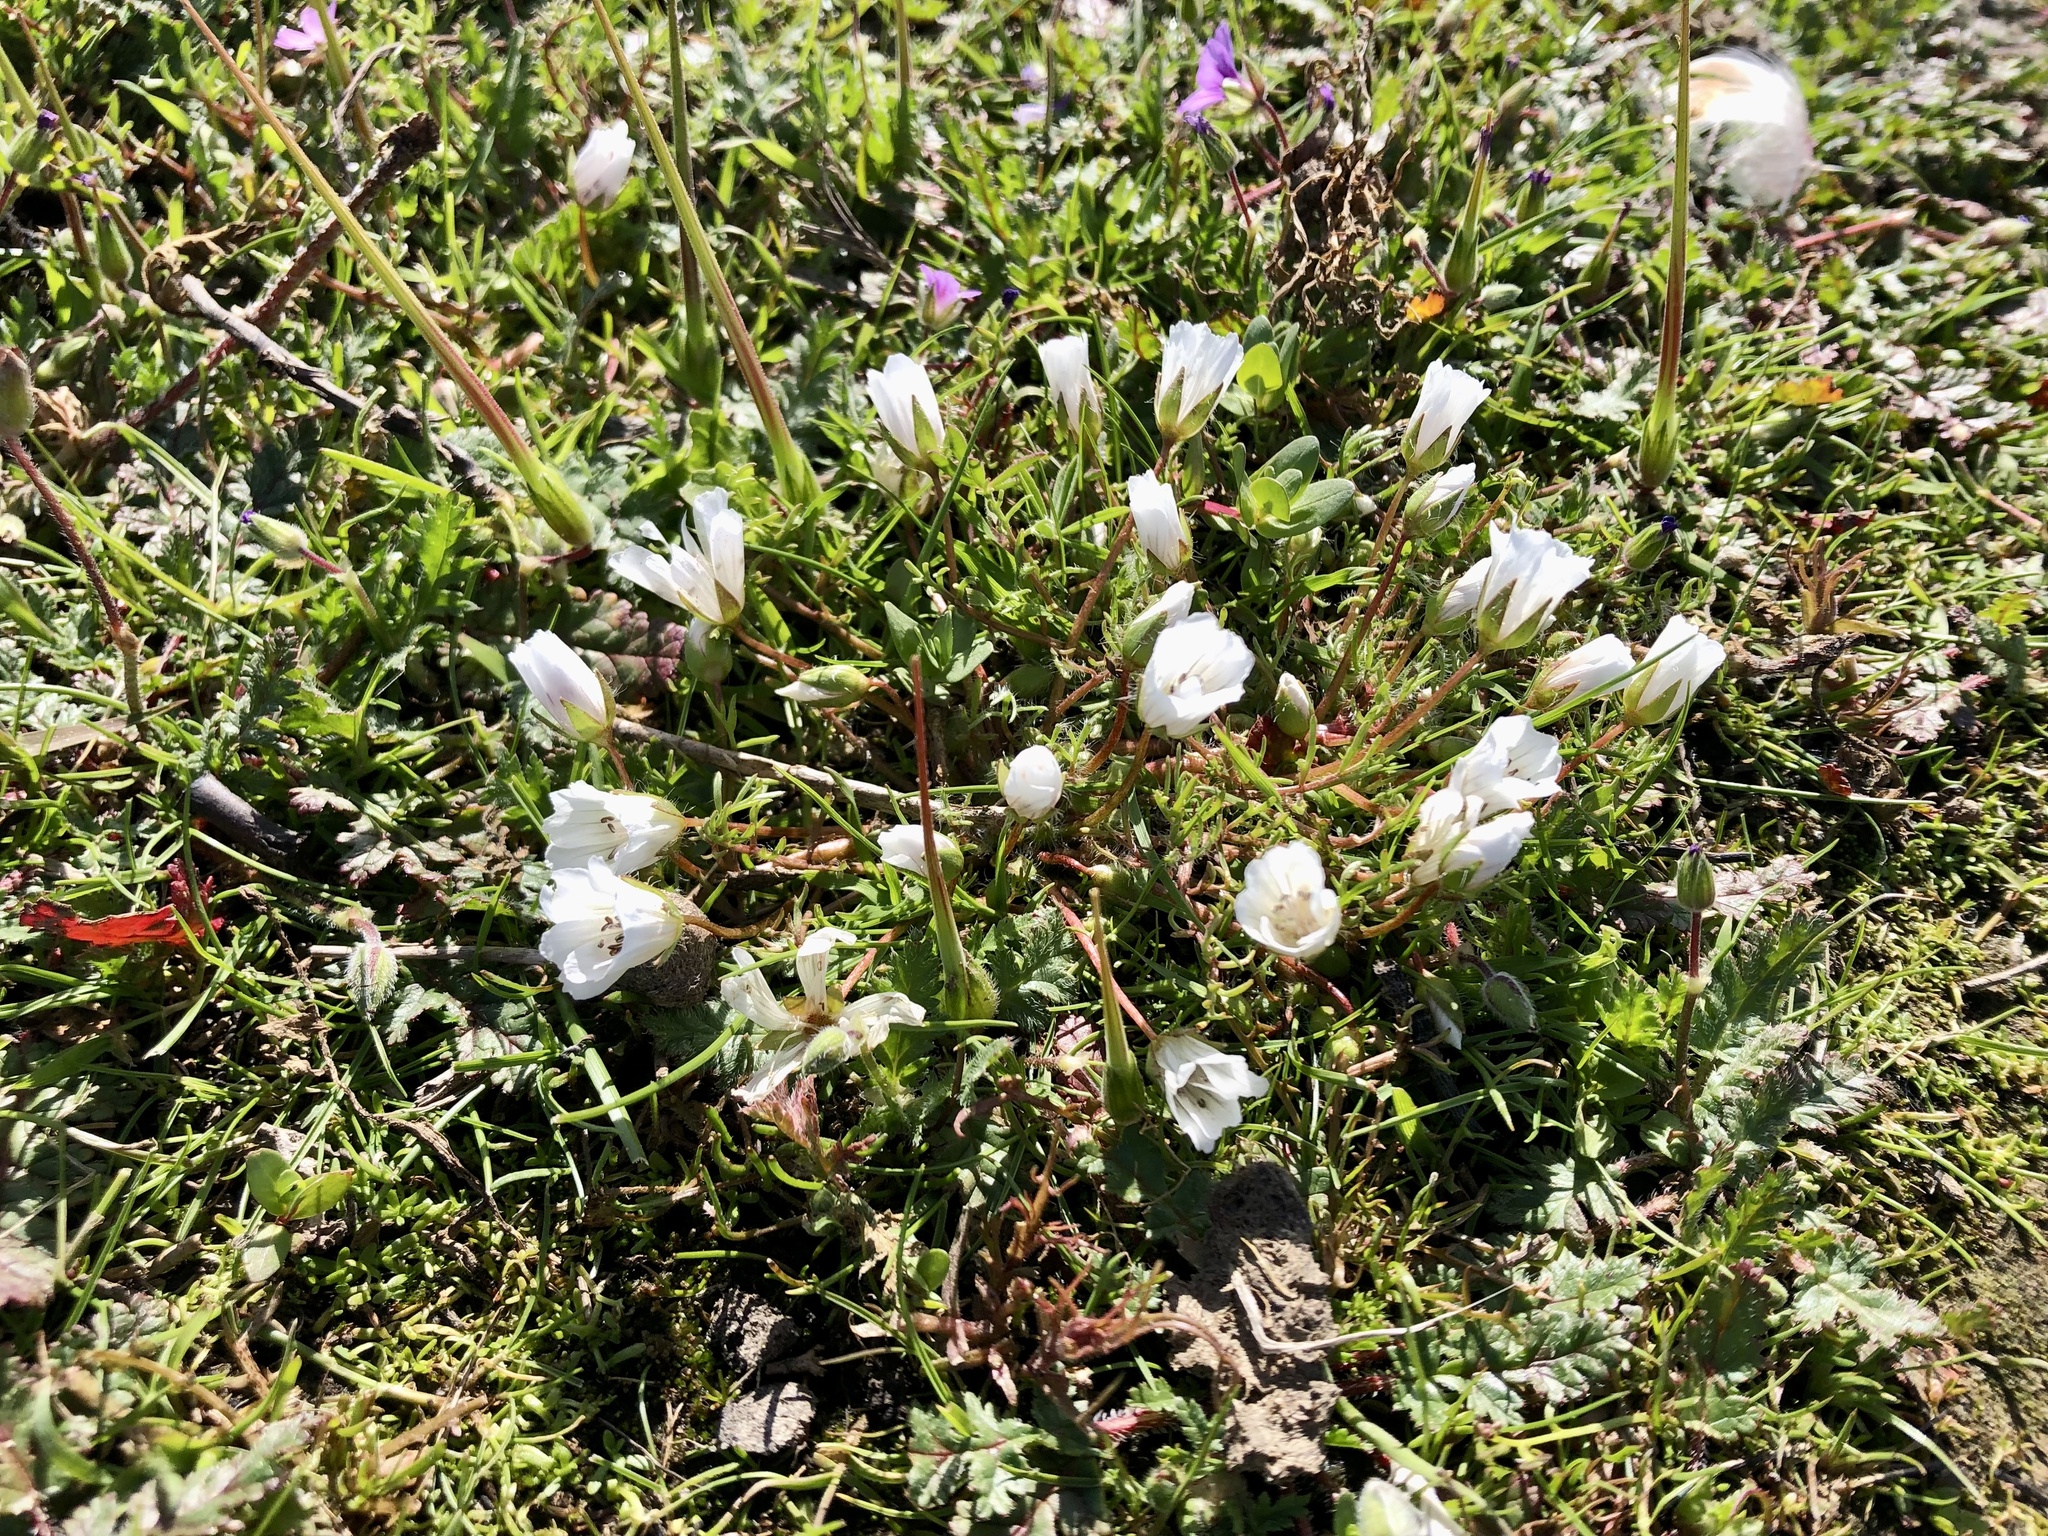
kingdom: Plantae
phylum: Tracheophyta
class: Magnoliopsida
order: Brassicales
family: Limnanthaceae
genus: Limnanthes
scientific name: Limnanthes douglasii
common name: Meadow-foam
